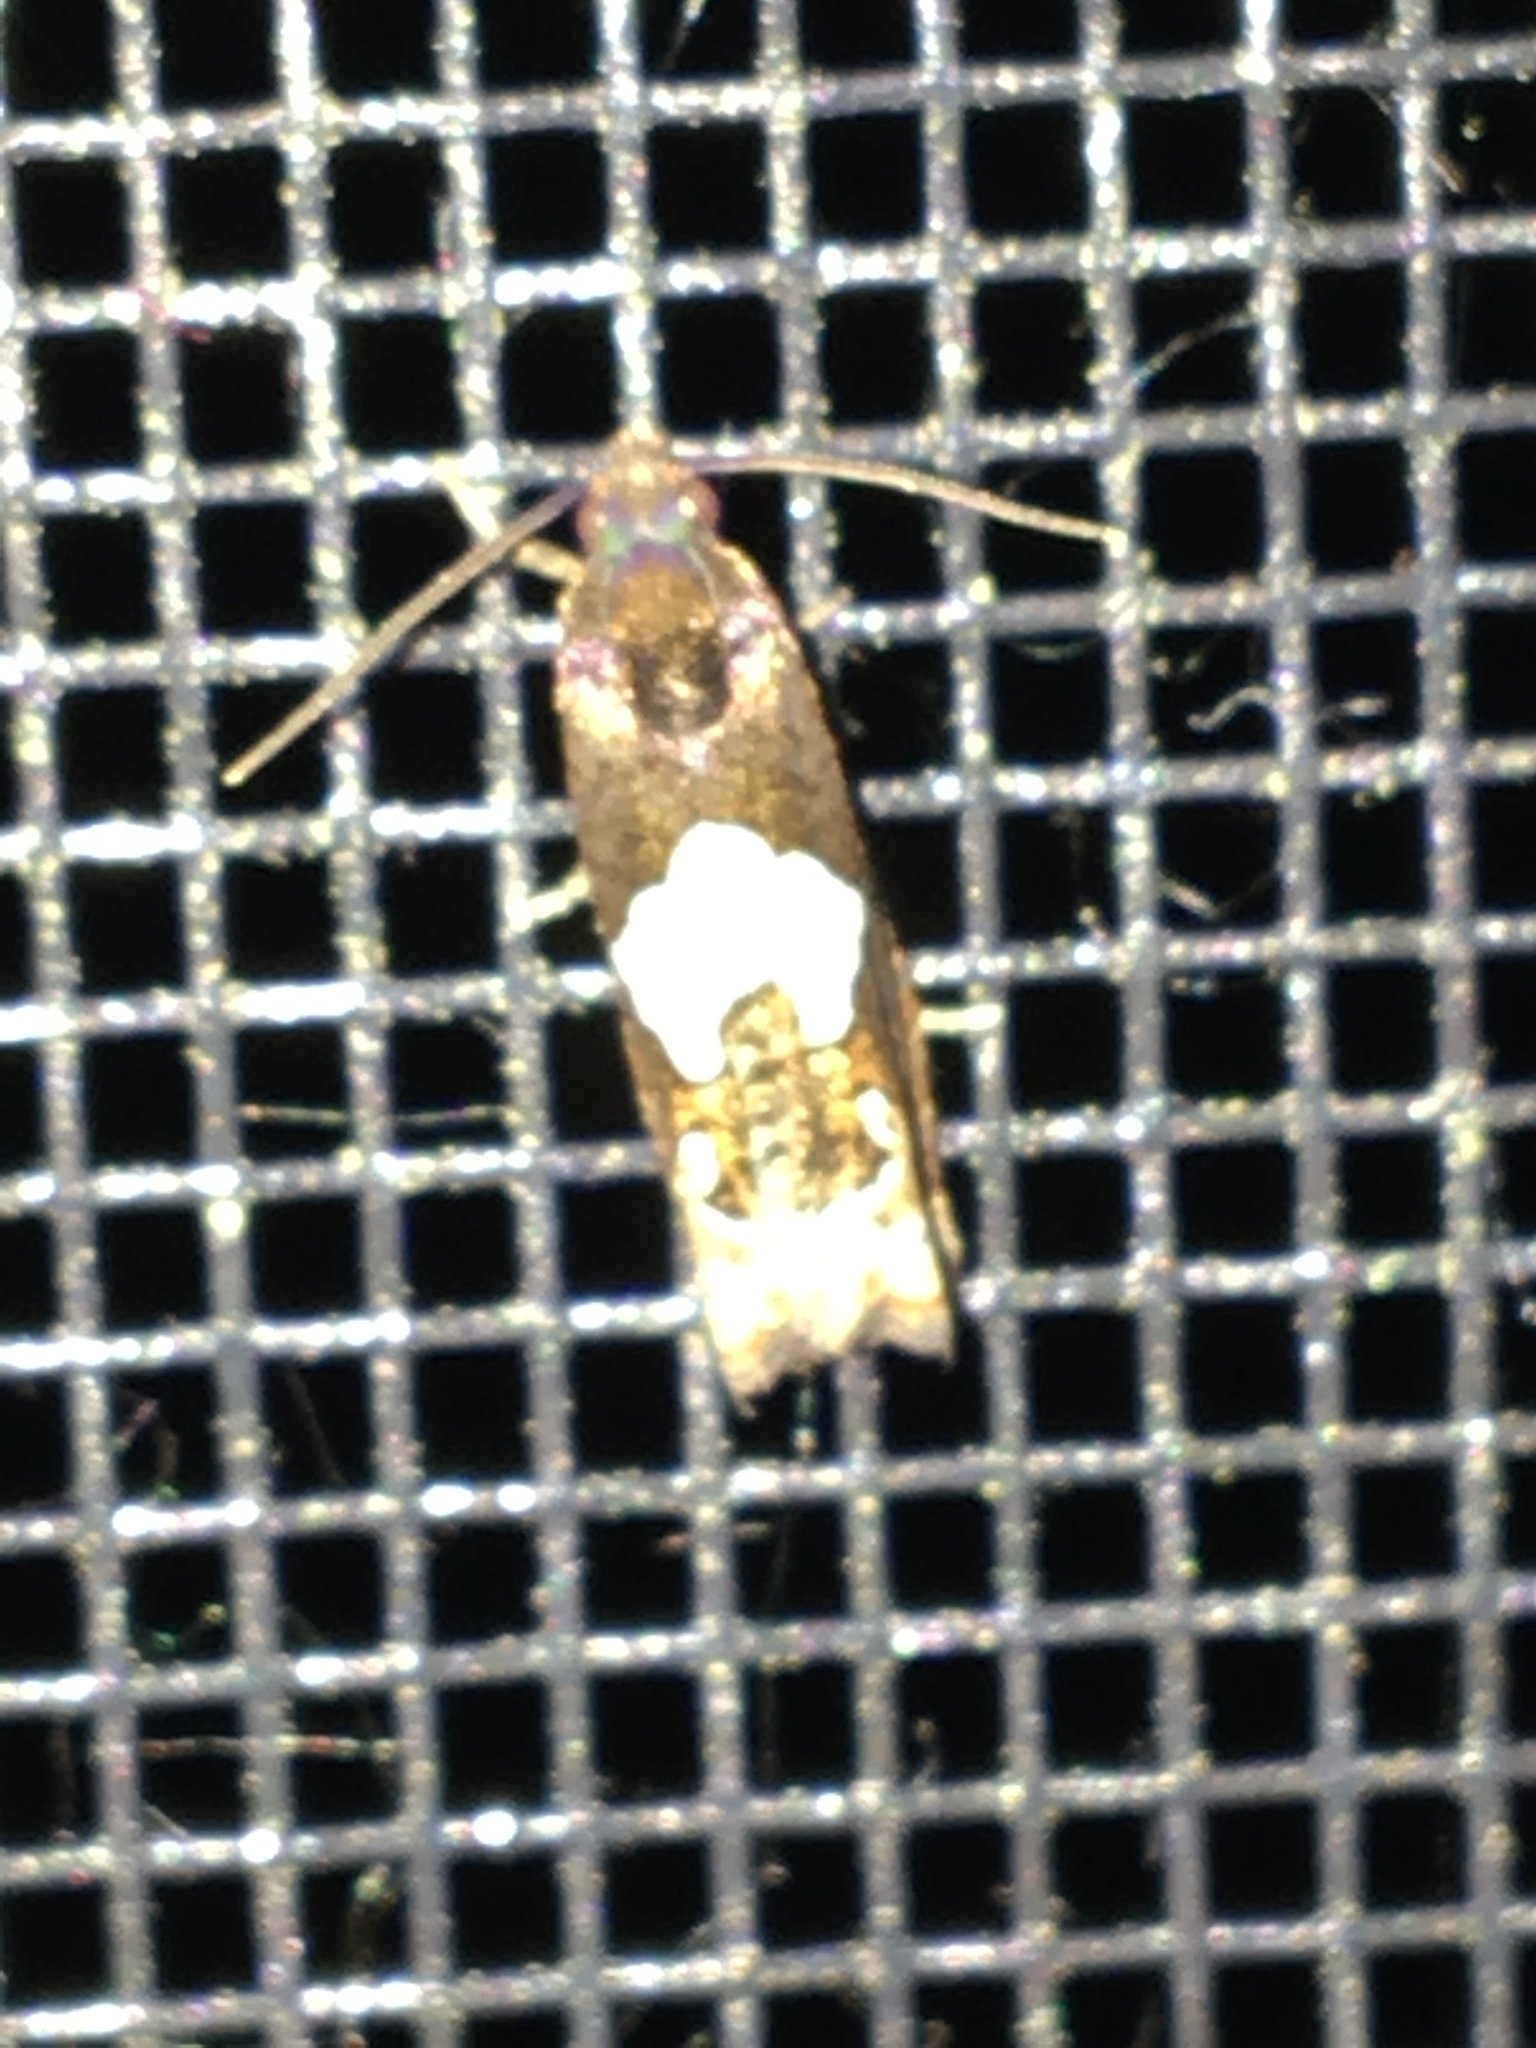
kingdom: Animalia
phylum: Arthropoda
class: Insecta
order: Lepidoptera
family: Tortricidae
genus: Epiblema
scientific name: Epiblema otiosana
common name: Bidens borer moth
